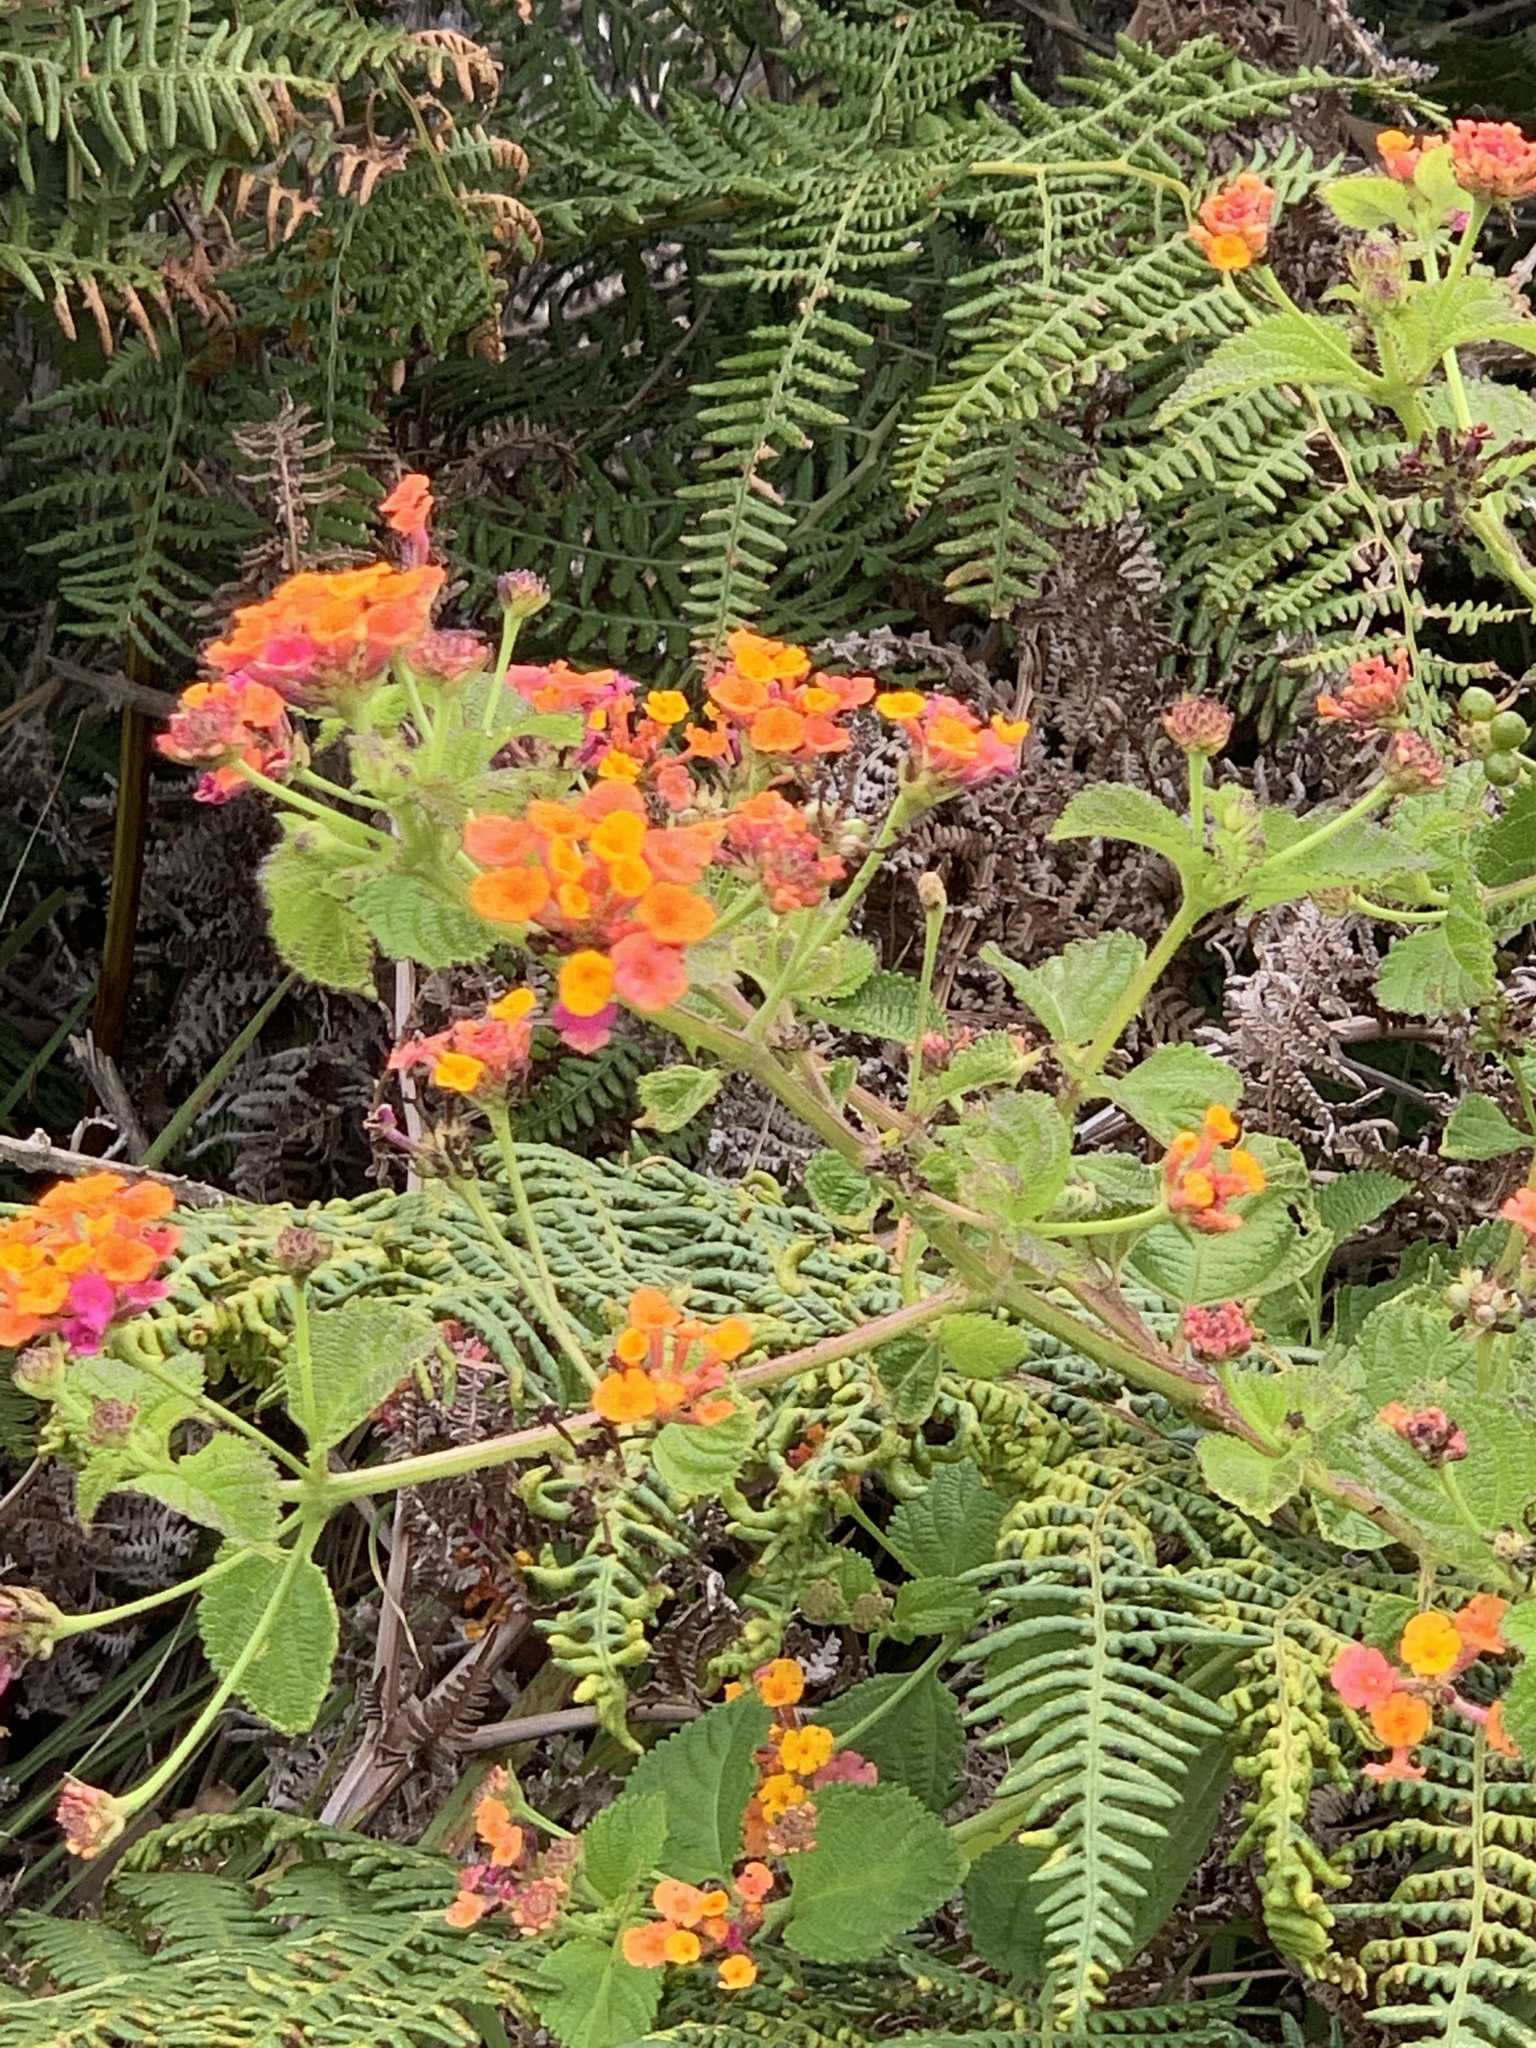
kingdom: Plantae
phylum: Tracheophyta
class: Magnoliopsida
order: Lamiales
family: Verbenaceae
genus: Lantana
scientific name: Lantana camara
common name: Lantana
